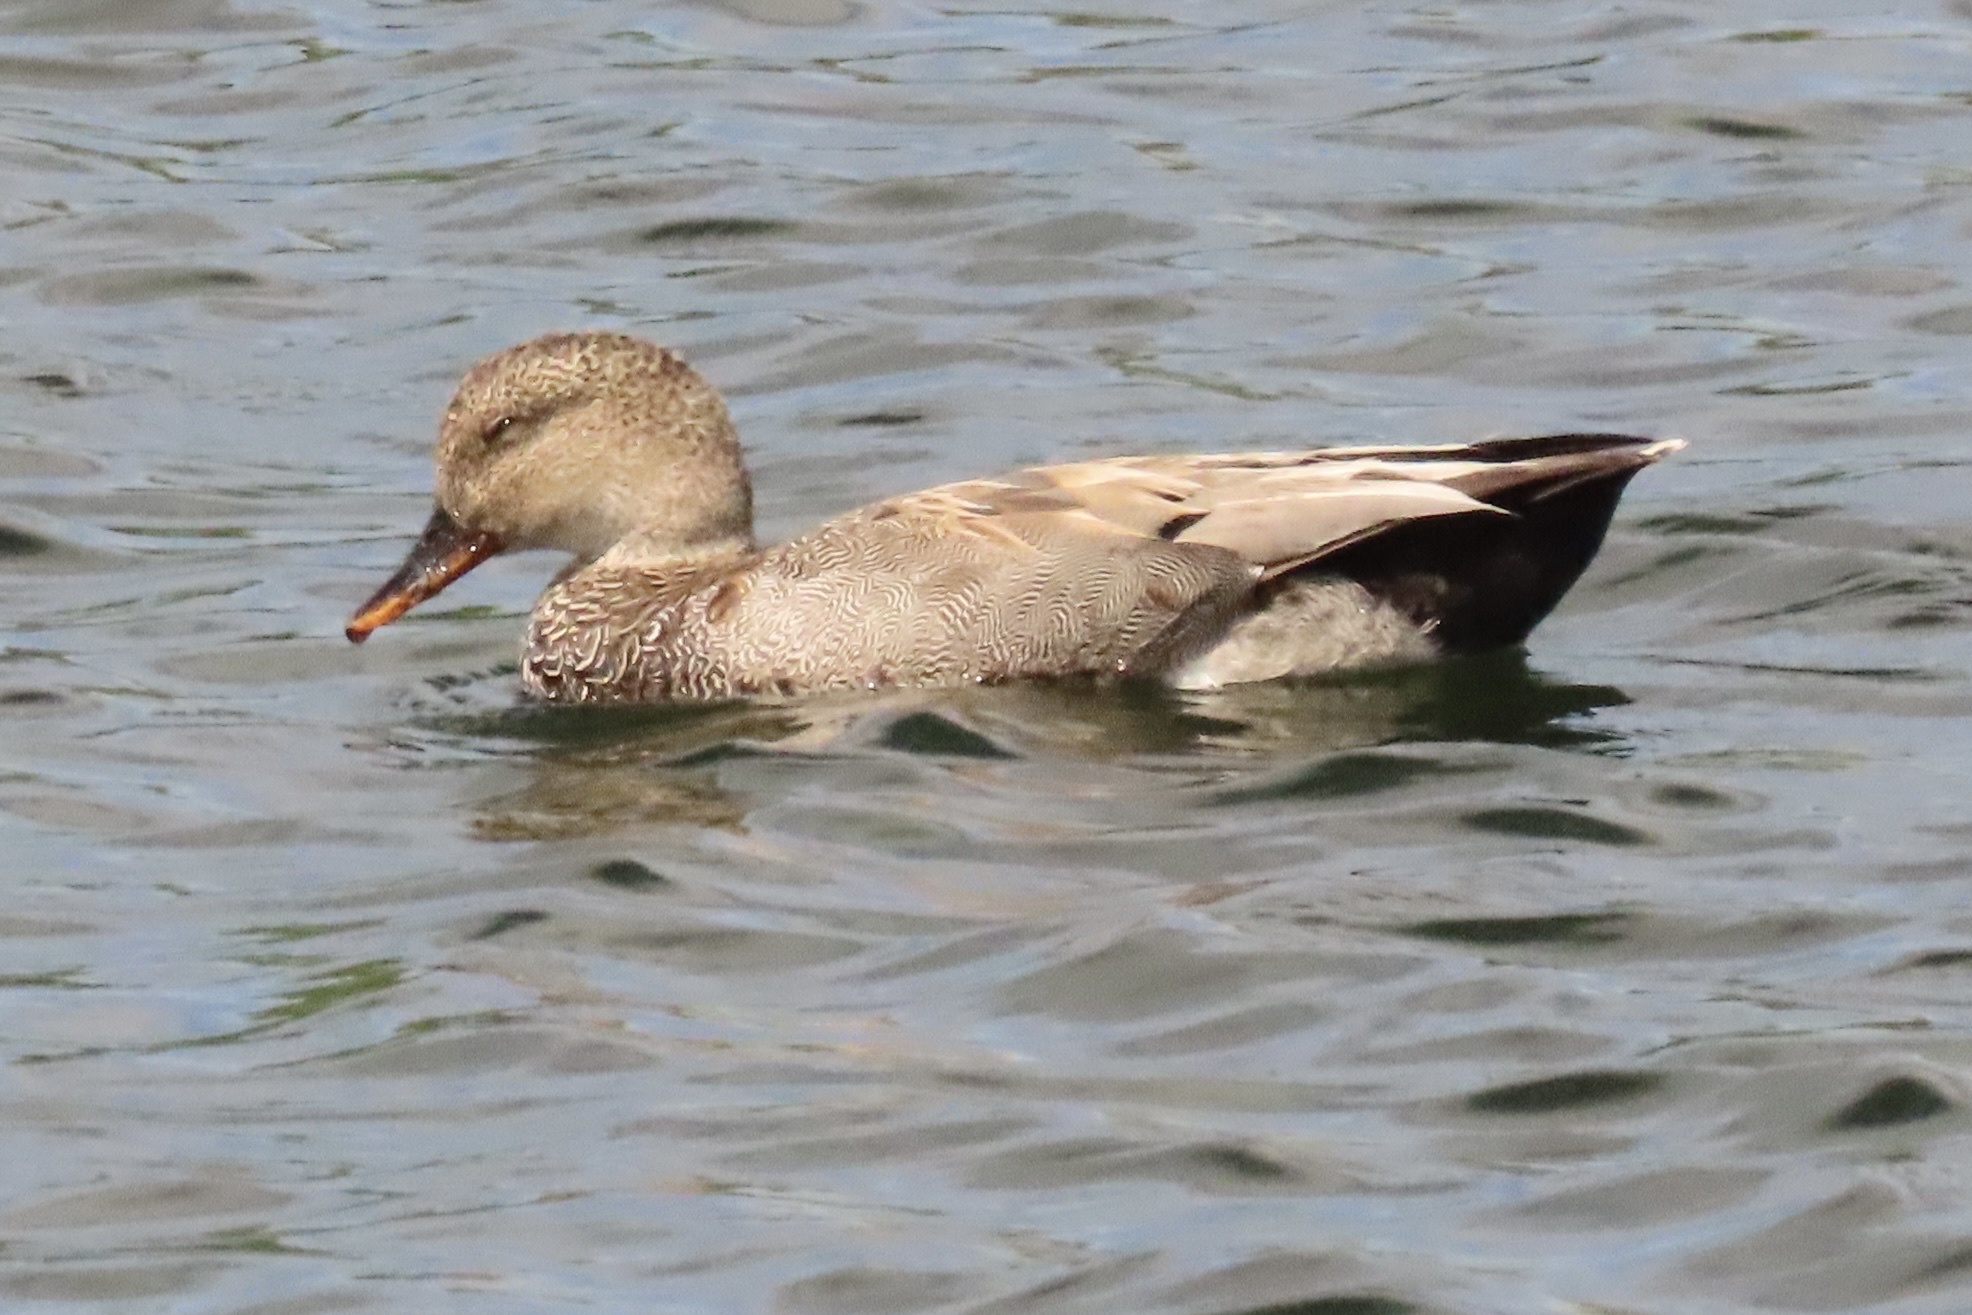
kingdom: Animalia
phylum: Chordata
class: Aves
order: Anseriformes
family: Anatidae
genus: Mareca
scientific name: Mareca strepera
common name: Gadwall
